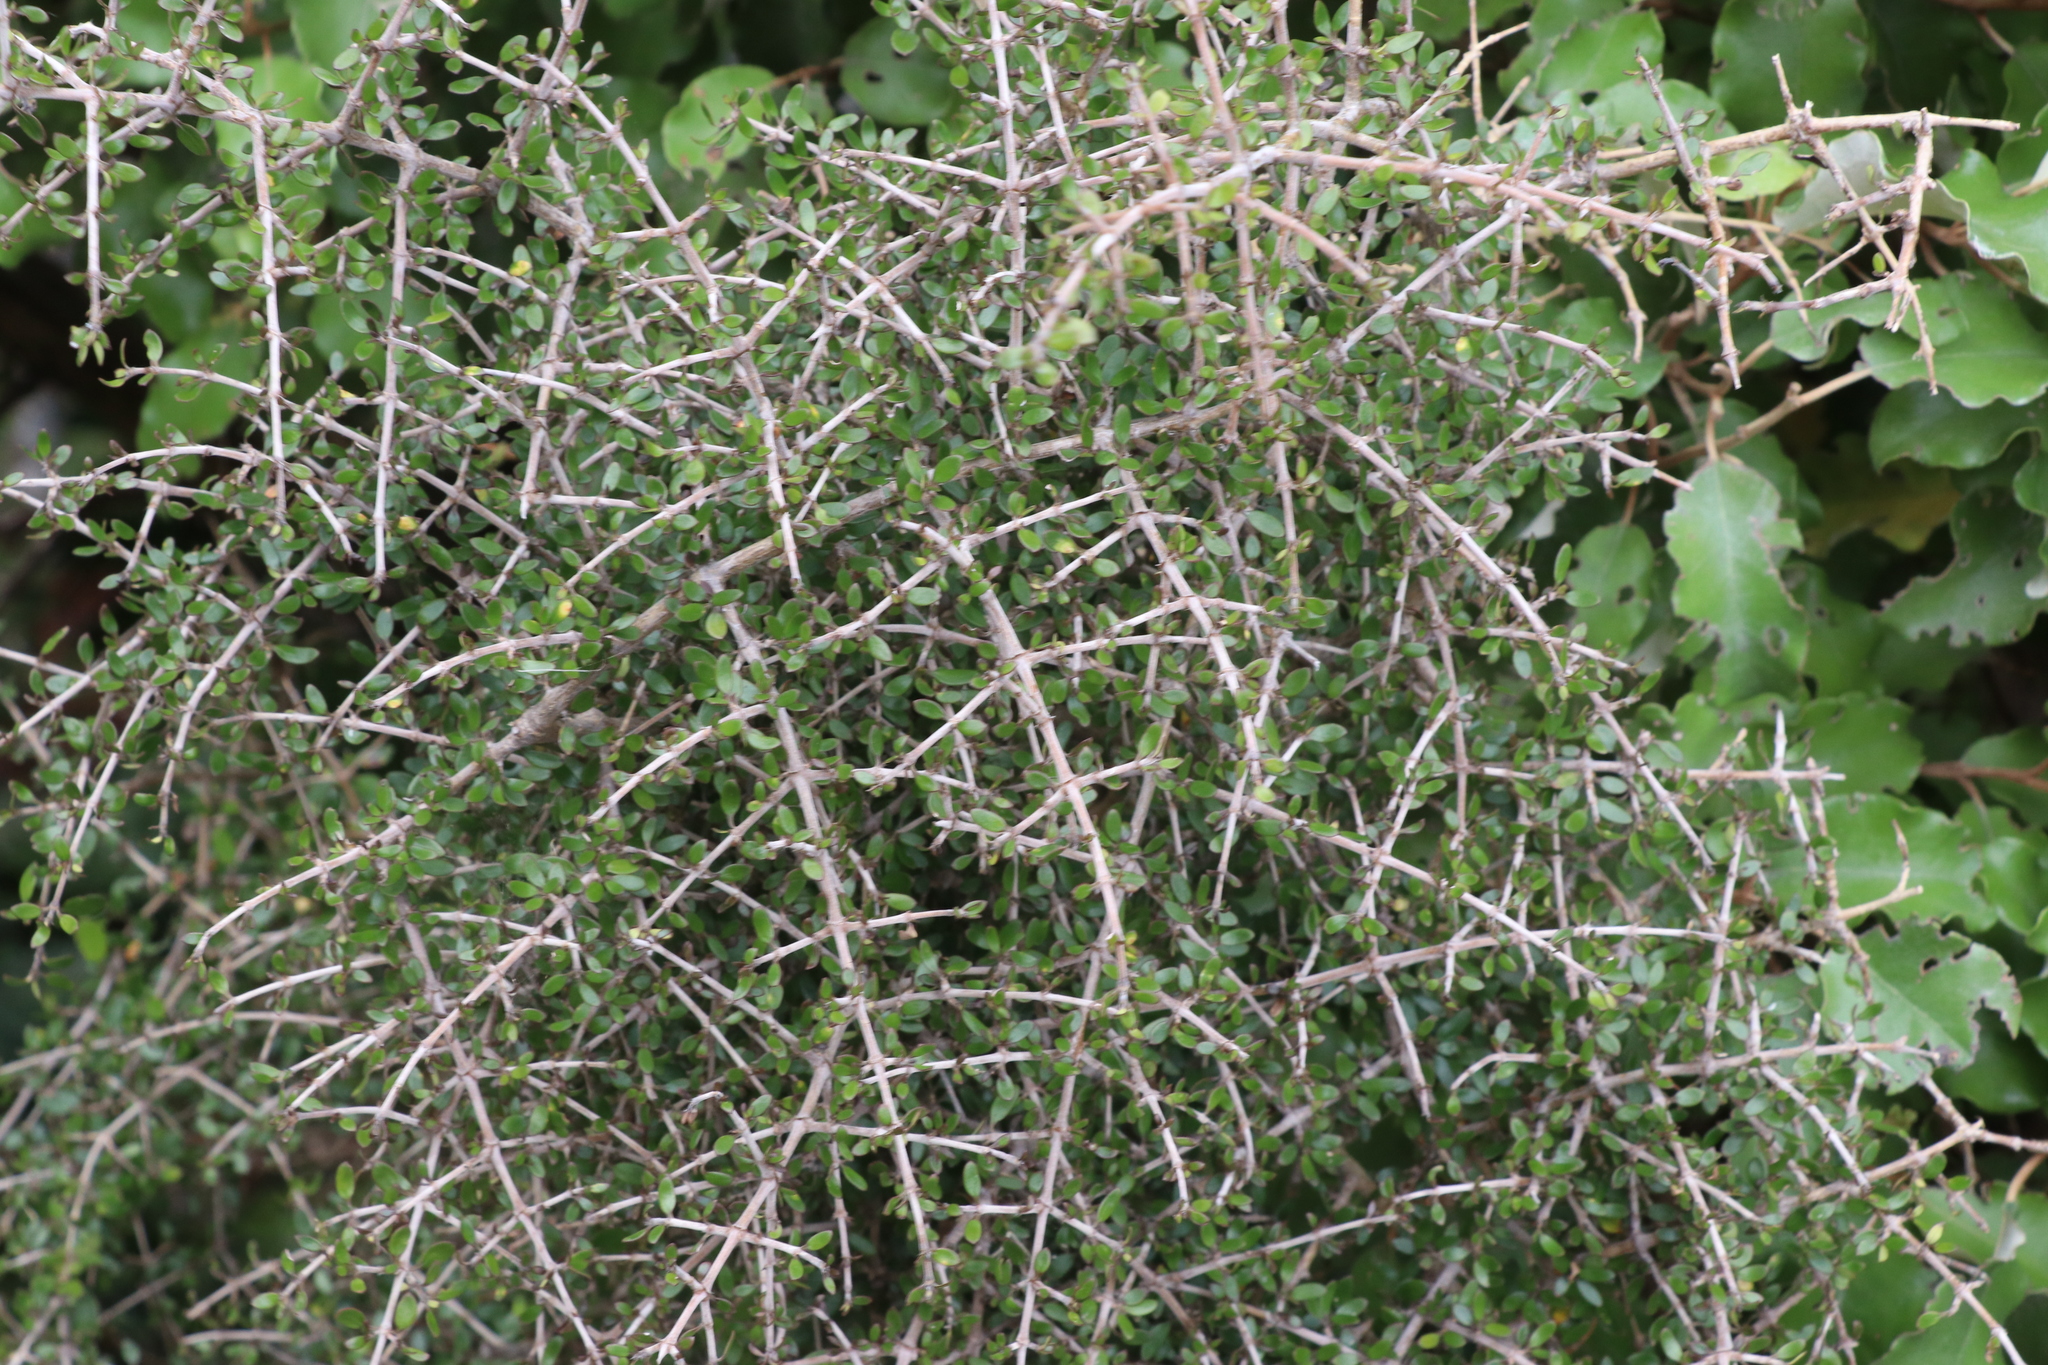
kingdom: Plantae
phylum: Tracheophyta
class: Magnoliopsida
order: Gentianales
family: Rubiaceae
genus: Coprosma
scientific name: Coprosma propinqua
